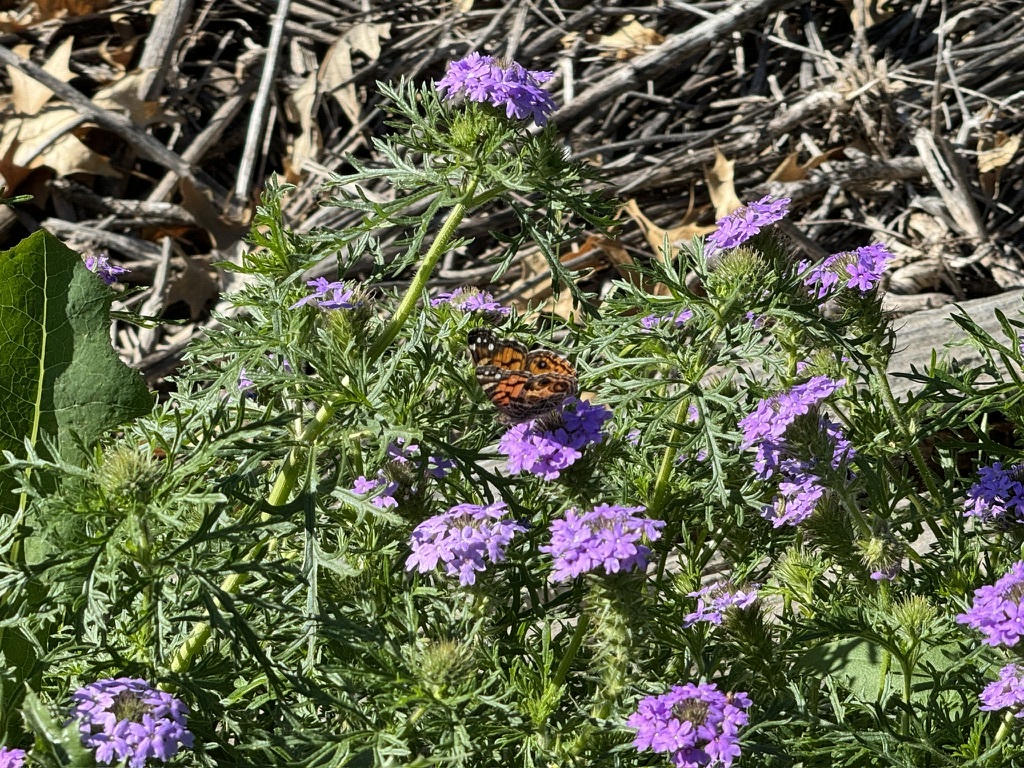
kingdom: Animalia
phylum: Arthropoda
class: Insecta
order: Lepidoptera
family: Nymphalidae
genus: Vanessa
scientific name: Vanessa virginiensis
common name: American lady
